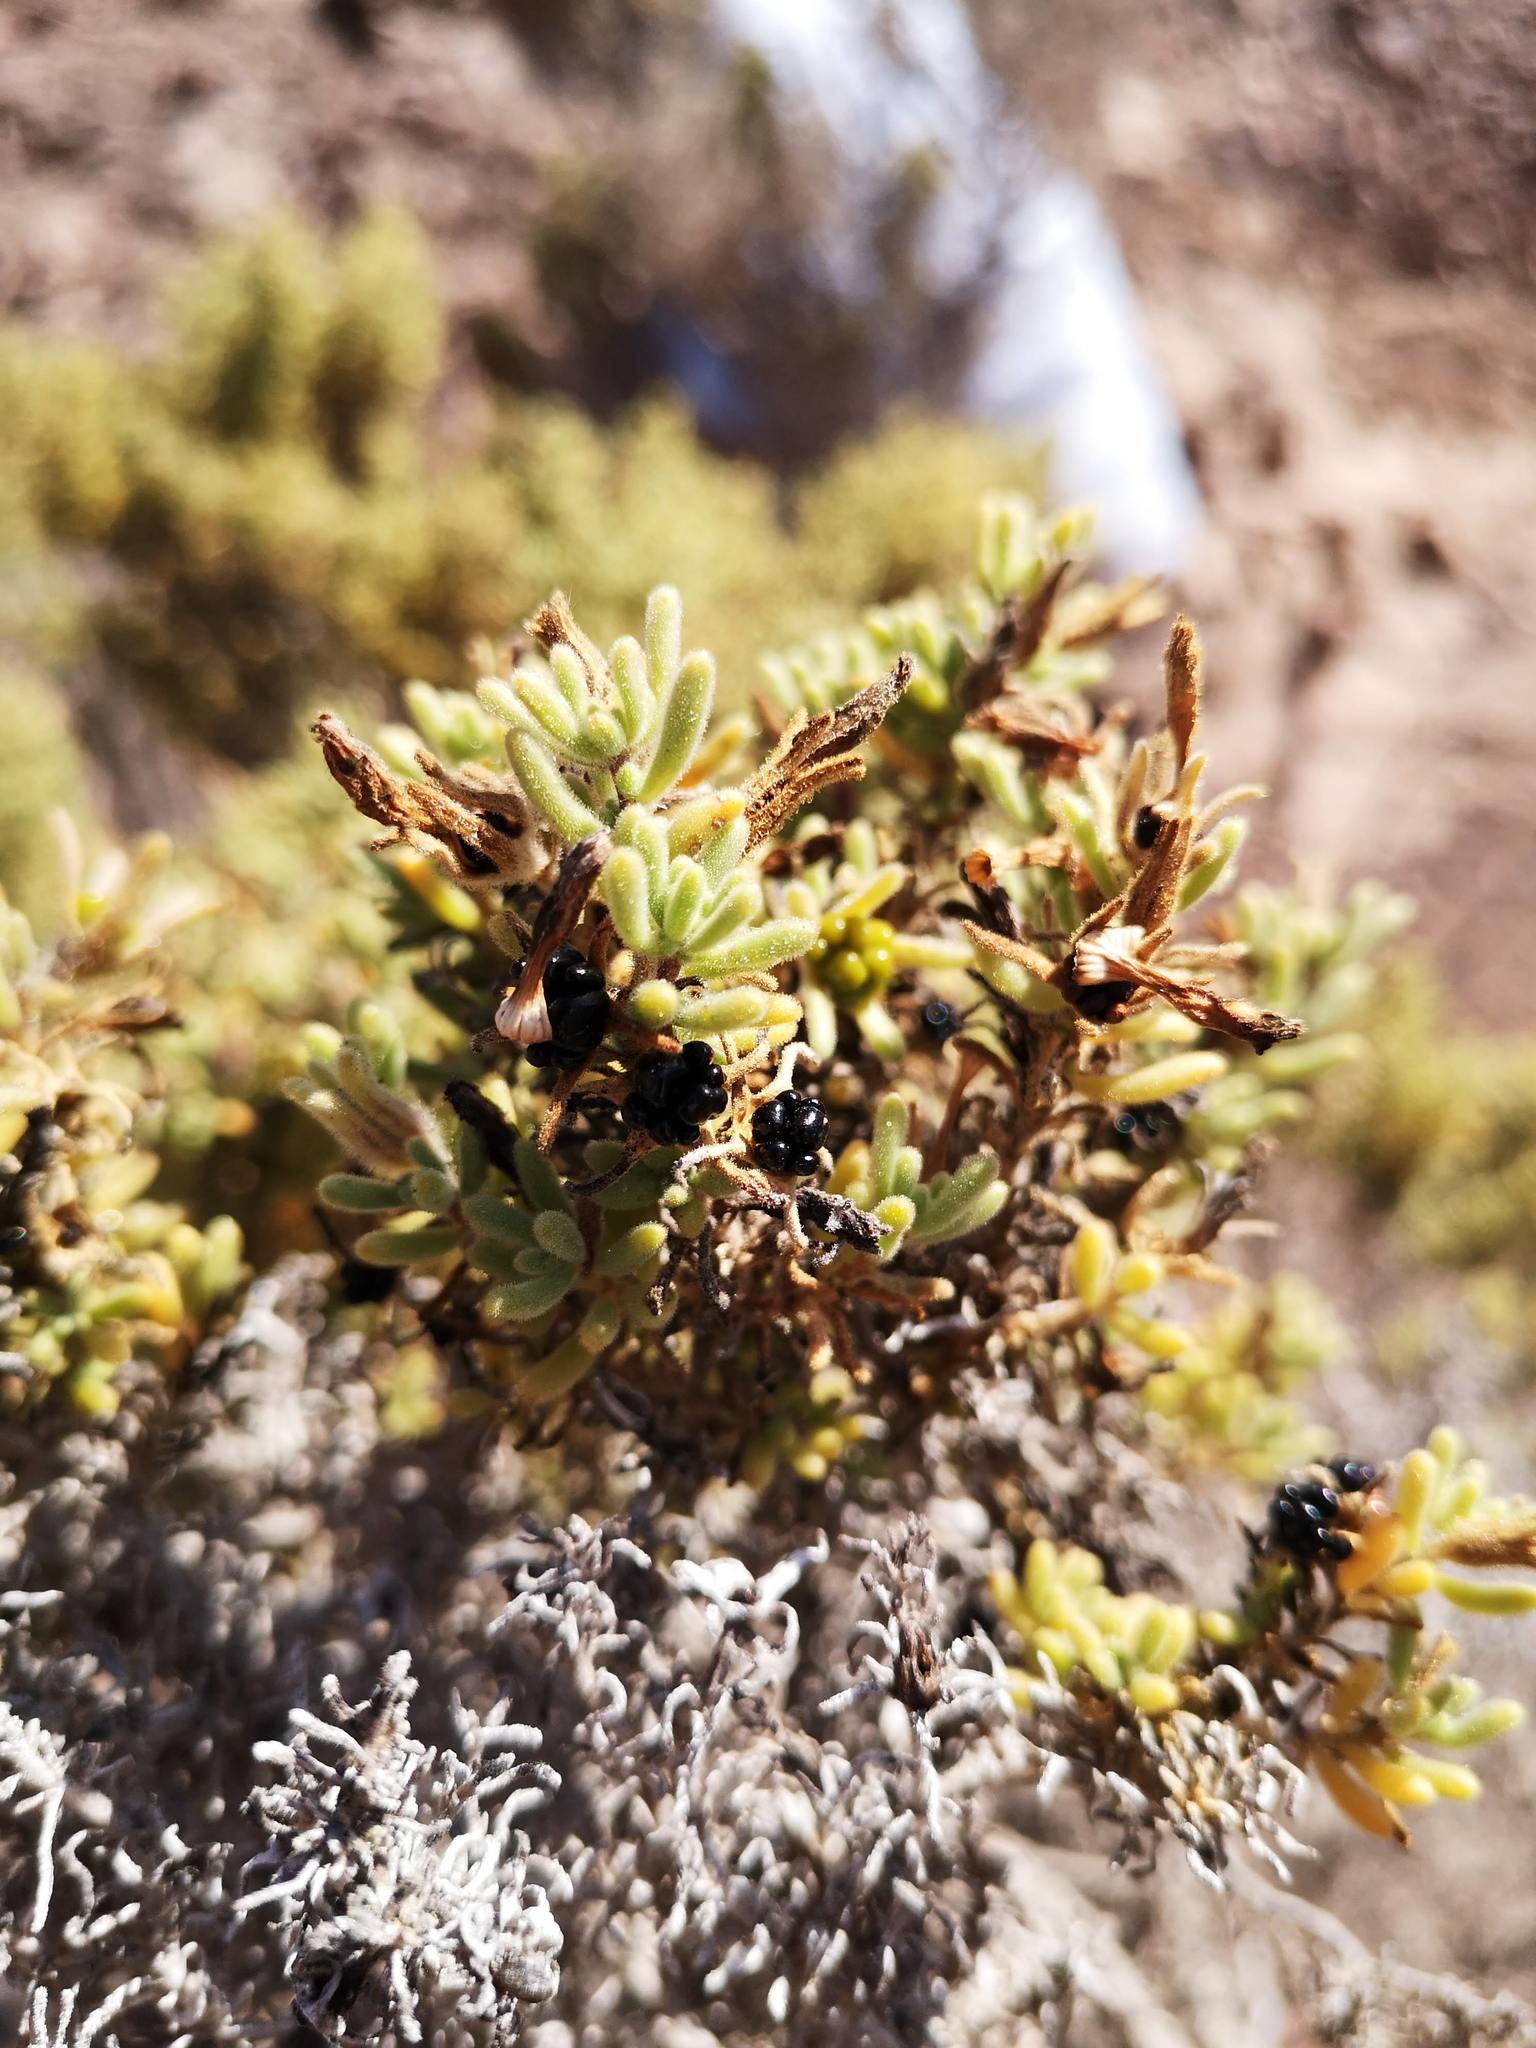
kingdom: Plantae
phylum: Tracheophyta
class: Magnoliopsida
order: Solanales
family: Solanaceae
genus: Nolana
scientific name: Nolana aplocaryoides
